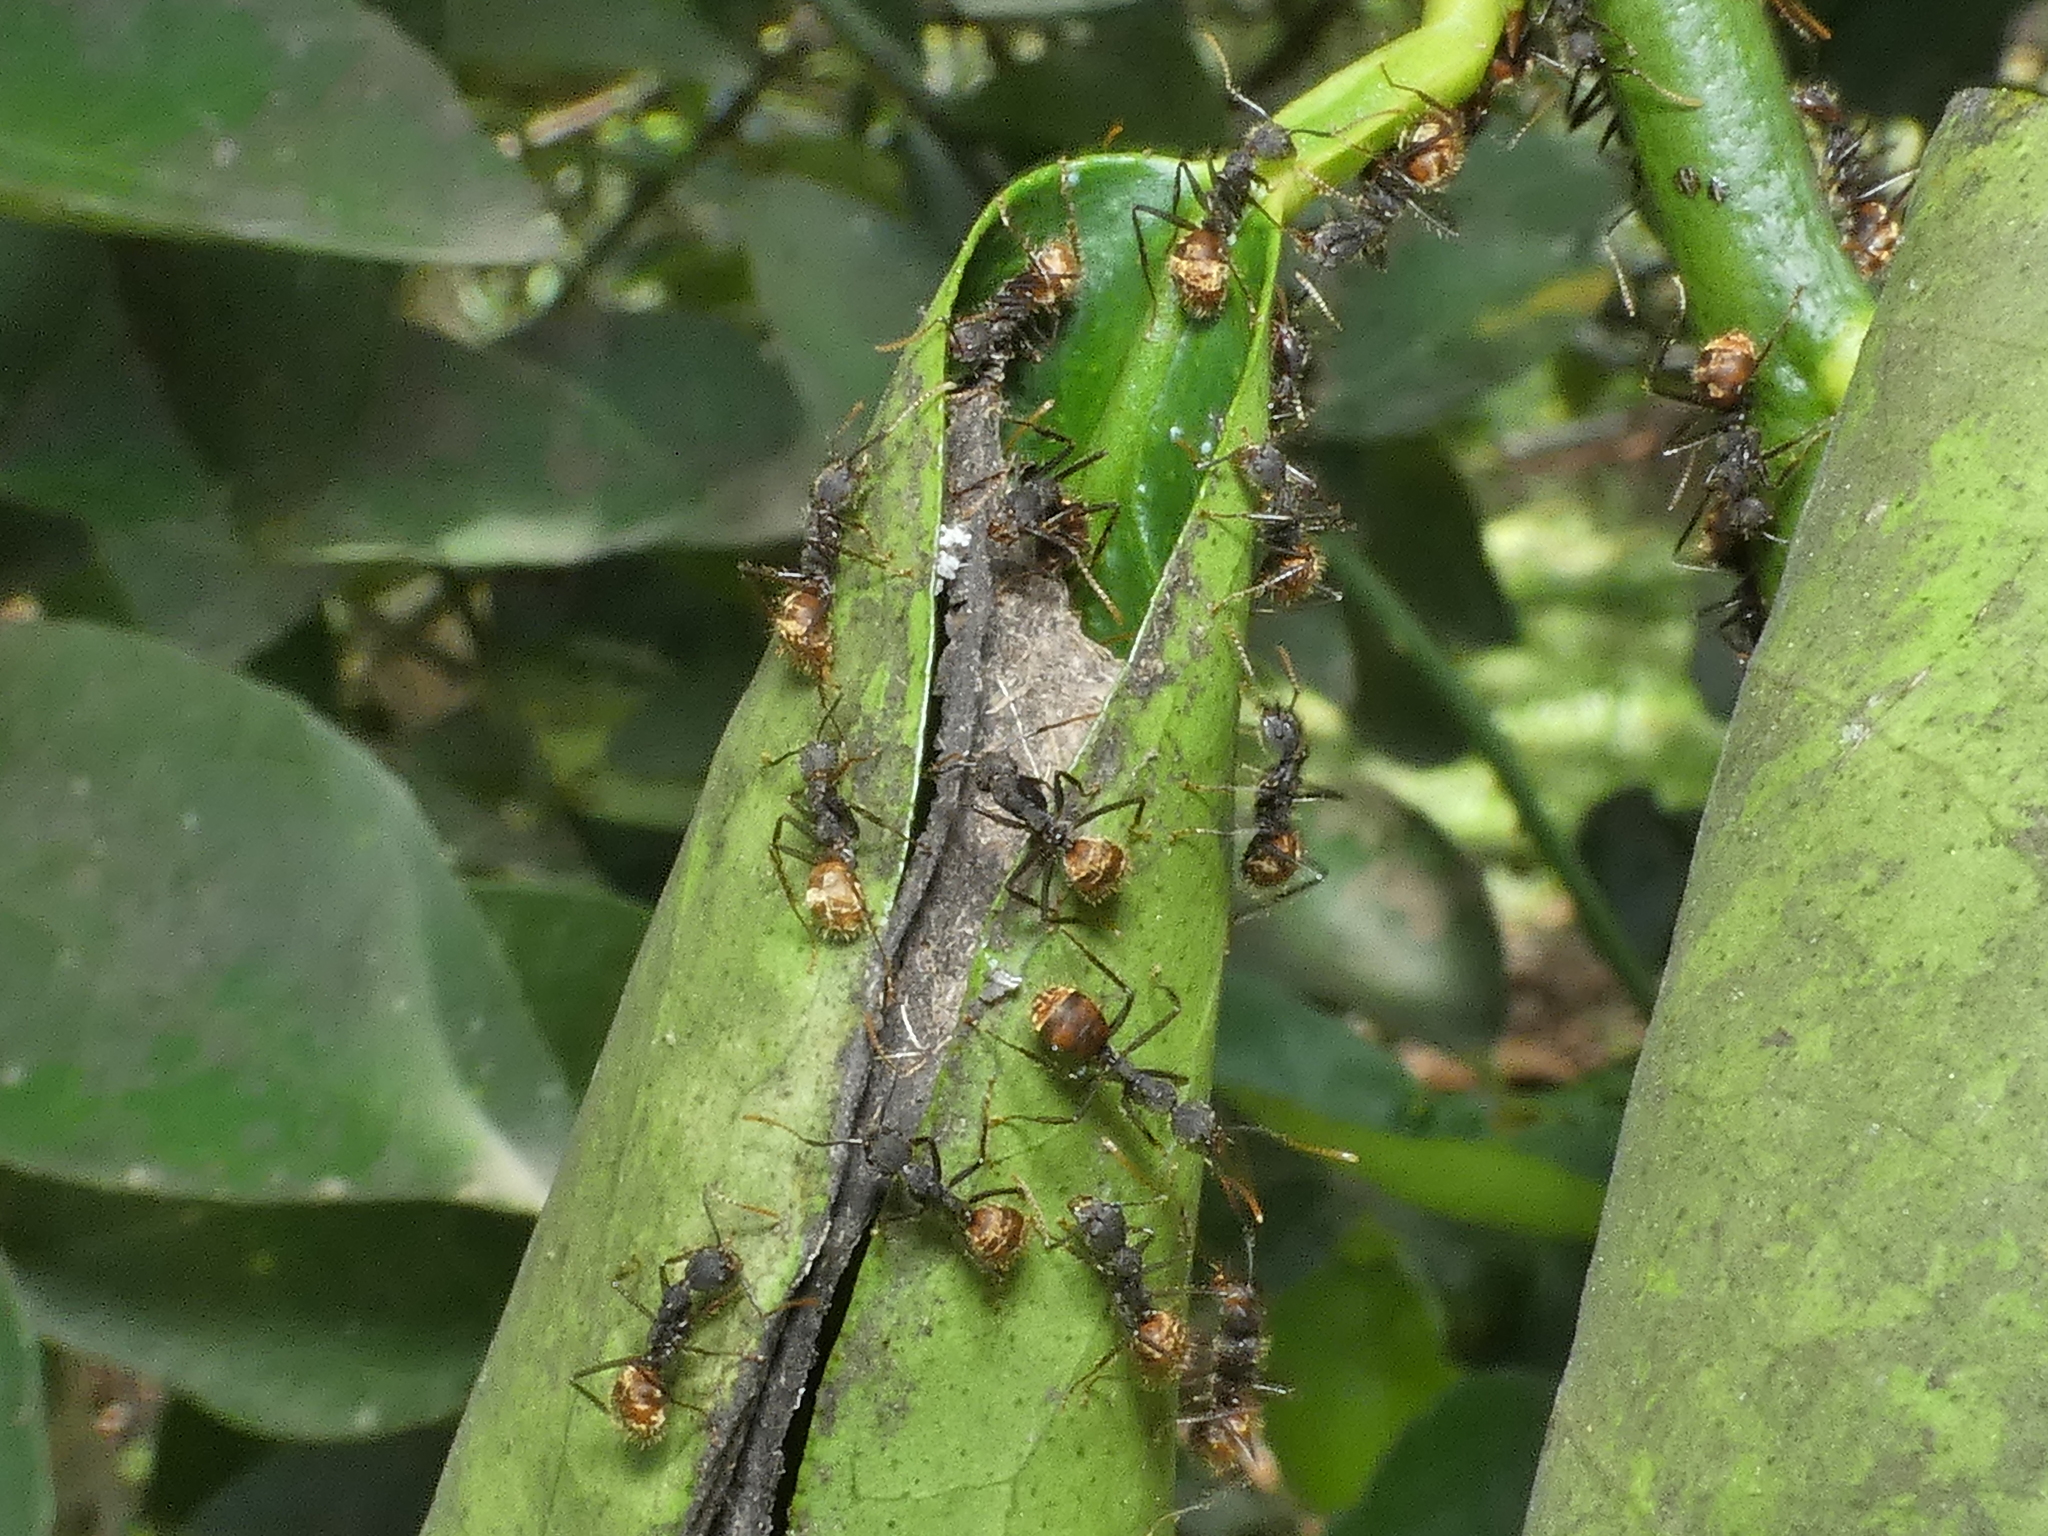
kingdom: Animalia
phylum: Arthropoda
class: Insecta
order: Hymenoptera
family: Formicidae
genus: Dolichoderus
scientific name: Dolichoderus bidens
